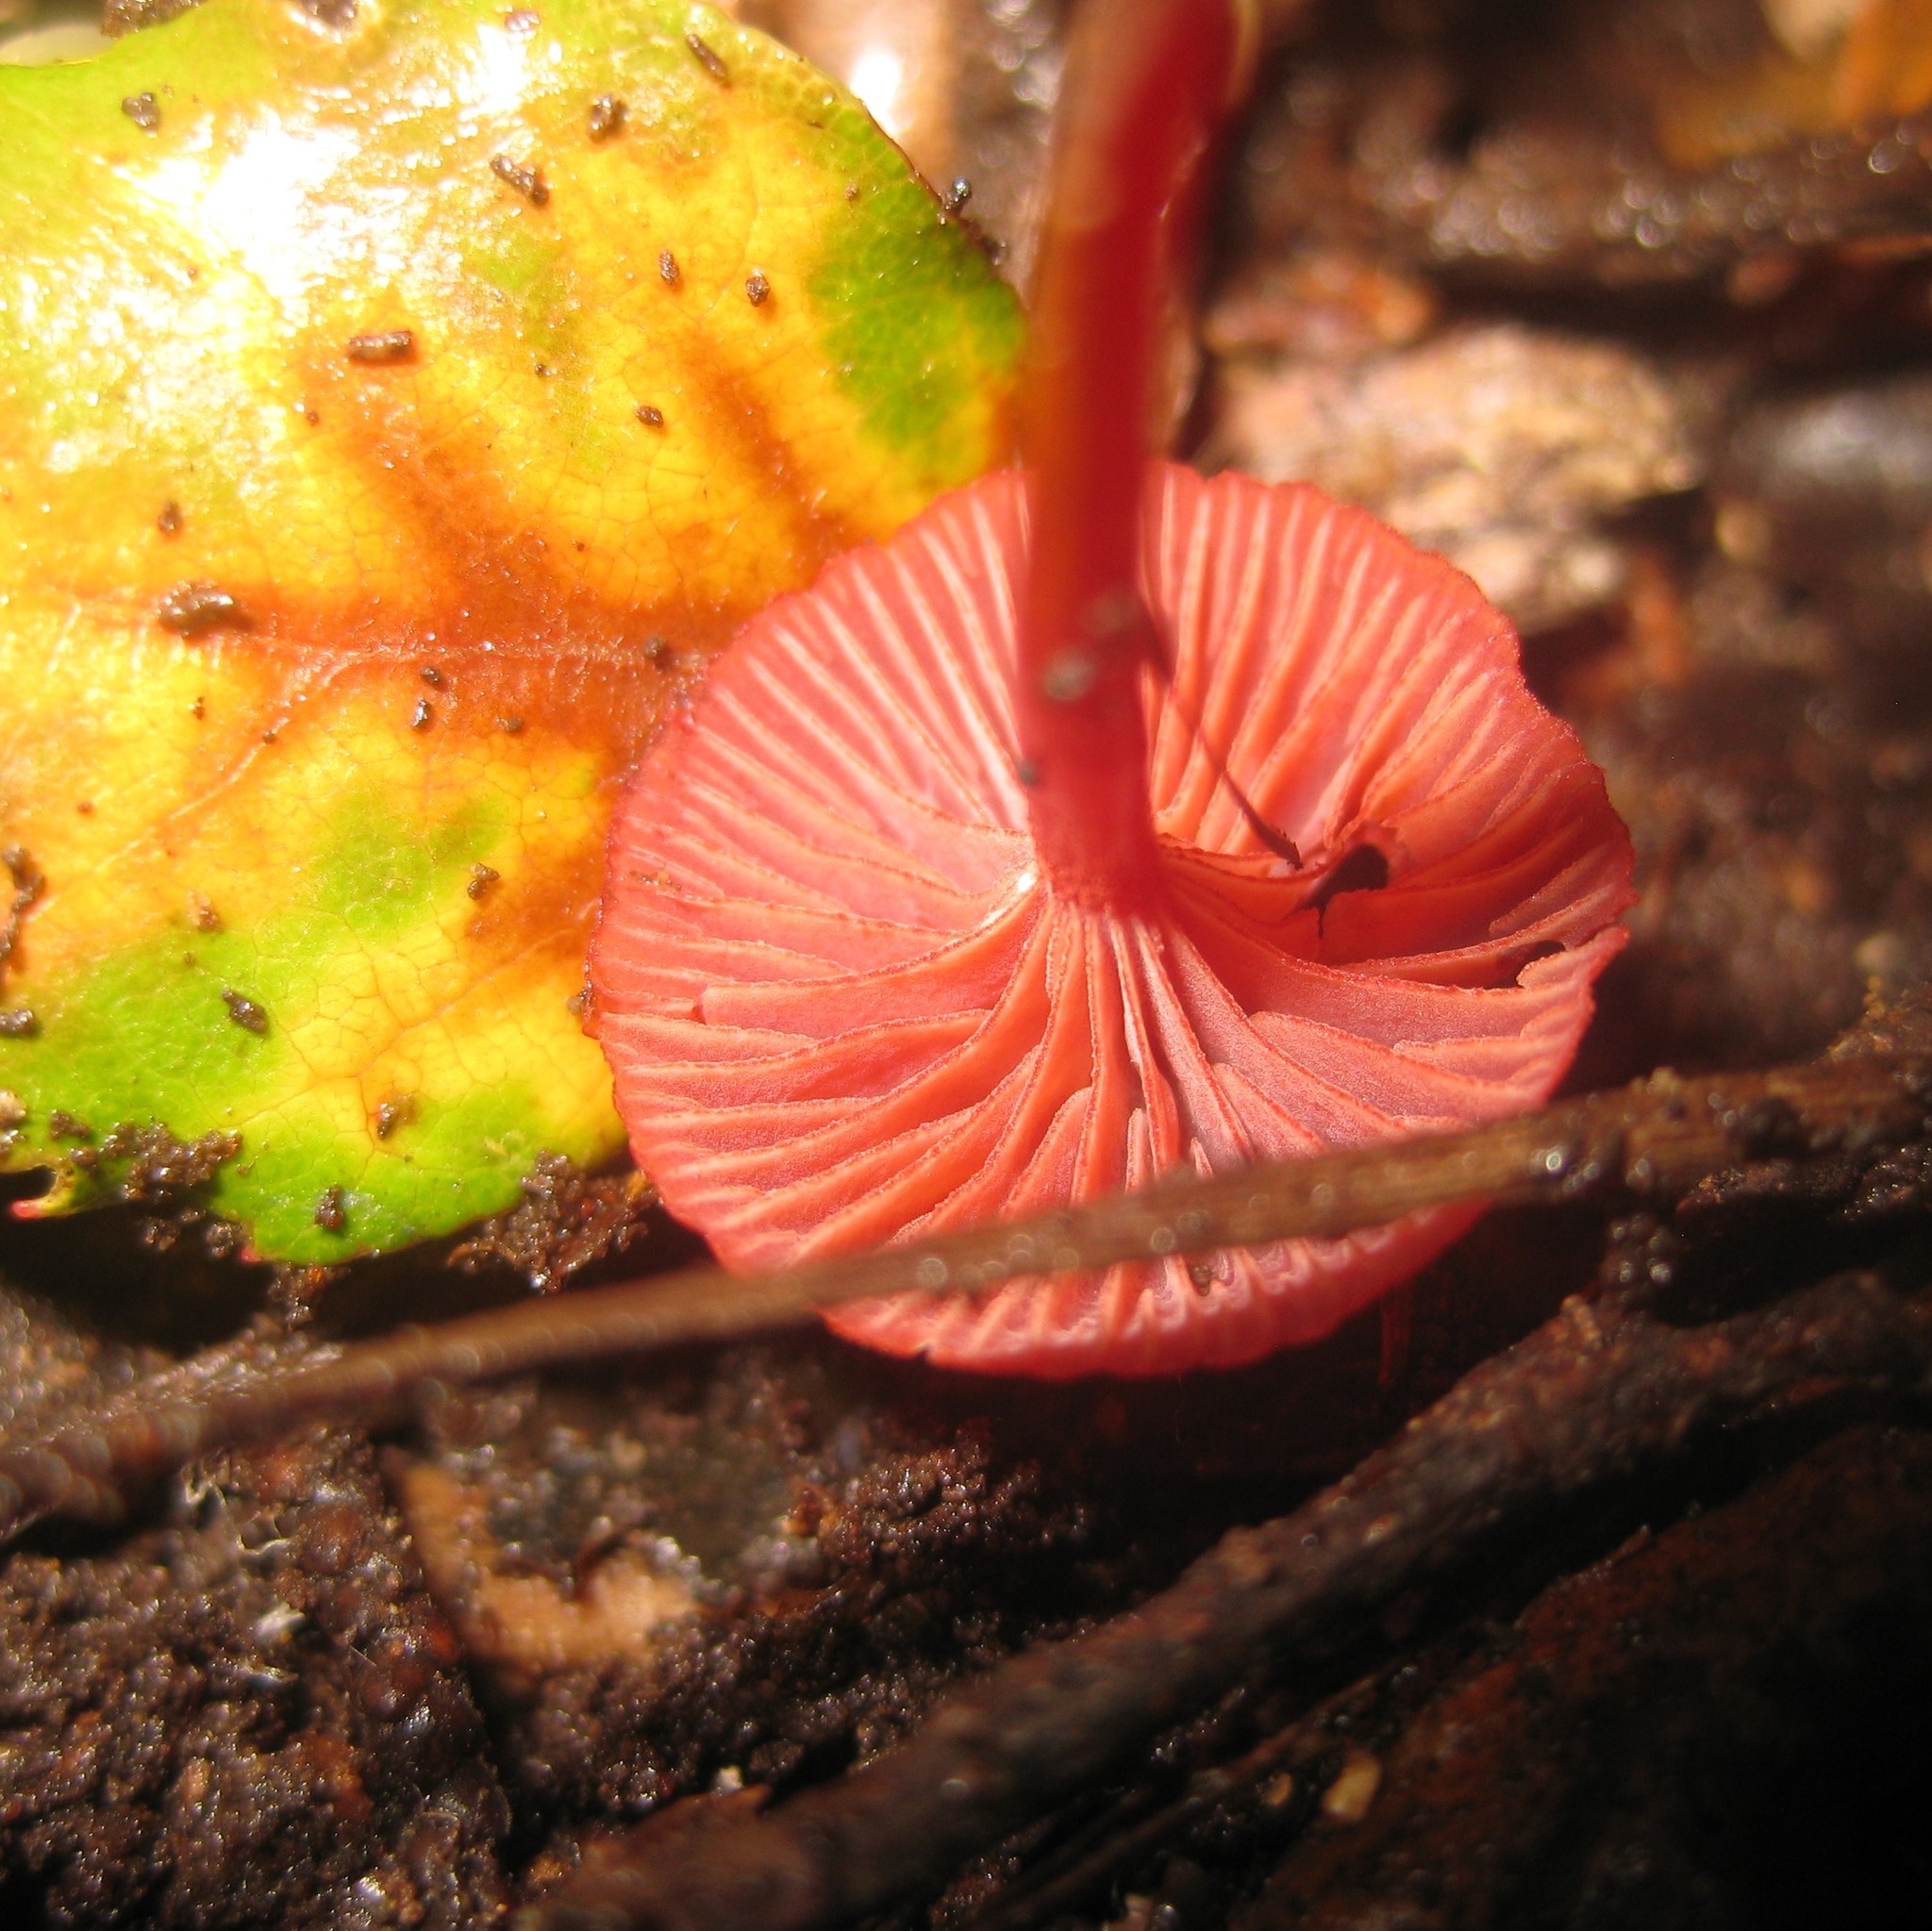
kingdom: Fungi
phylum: Basidiomycota
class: Agaricomycetes
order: Agaricales
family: Mycenaceae
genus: Cruentomycena
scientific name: Cruentomycena viscidocruenta
